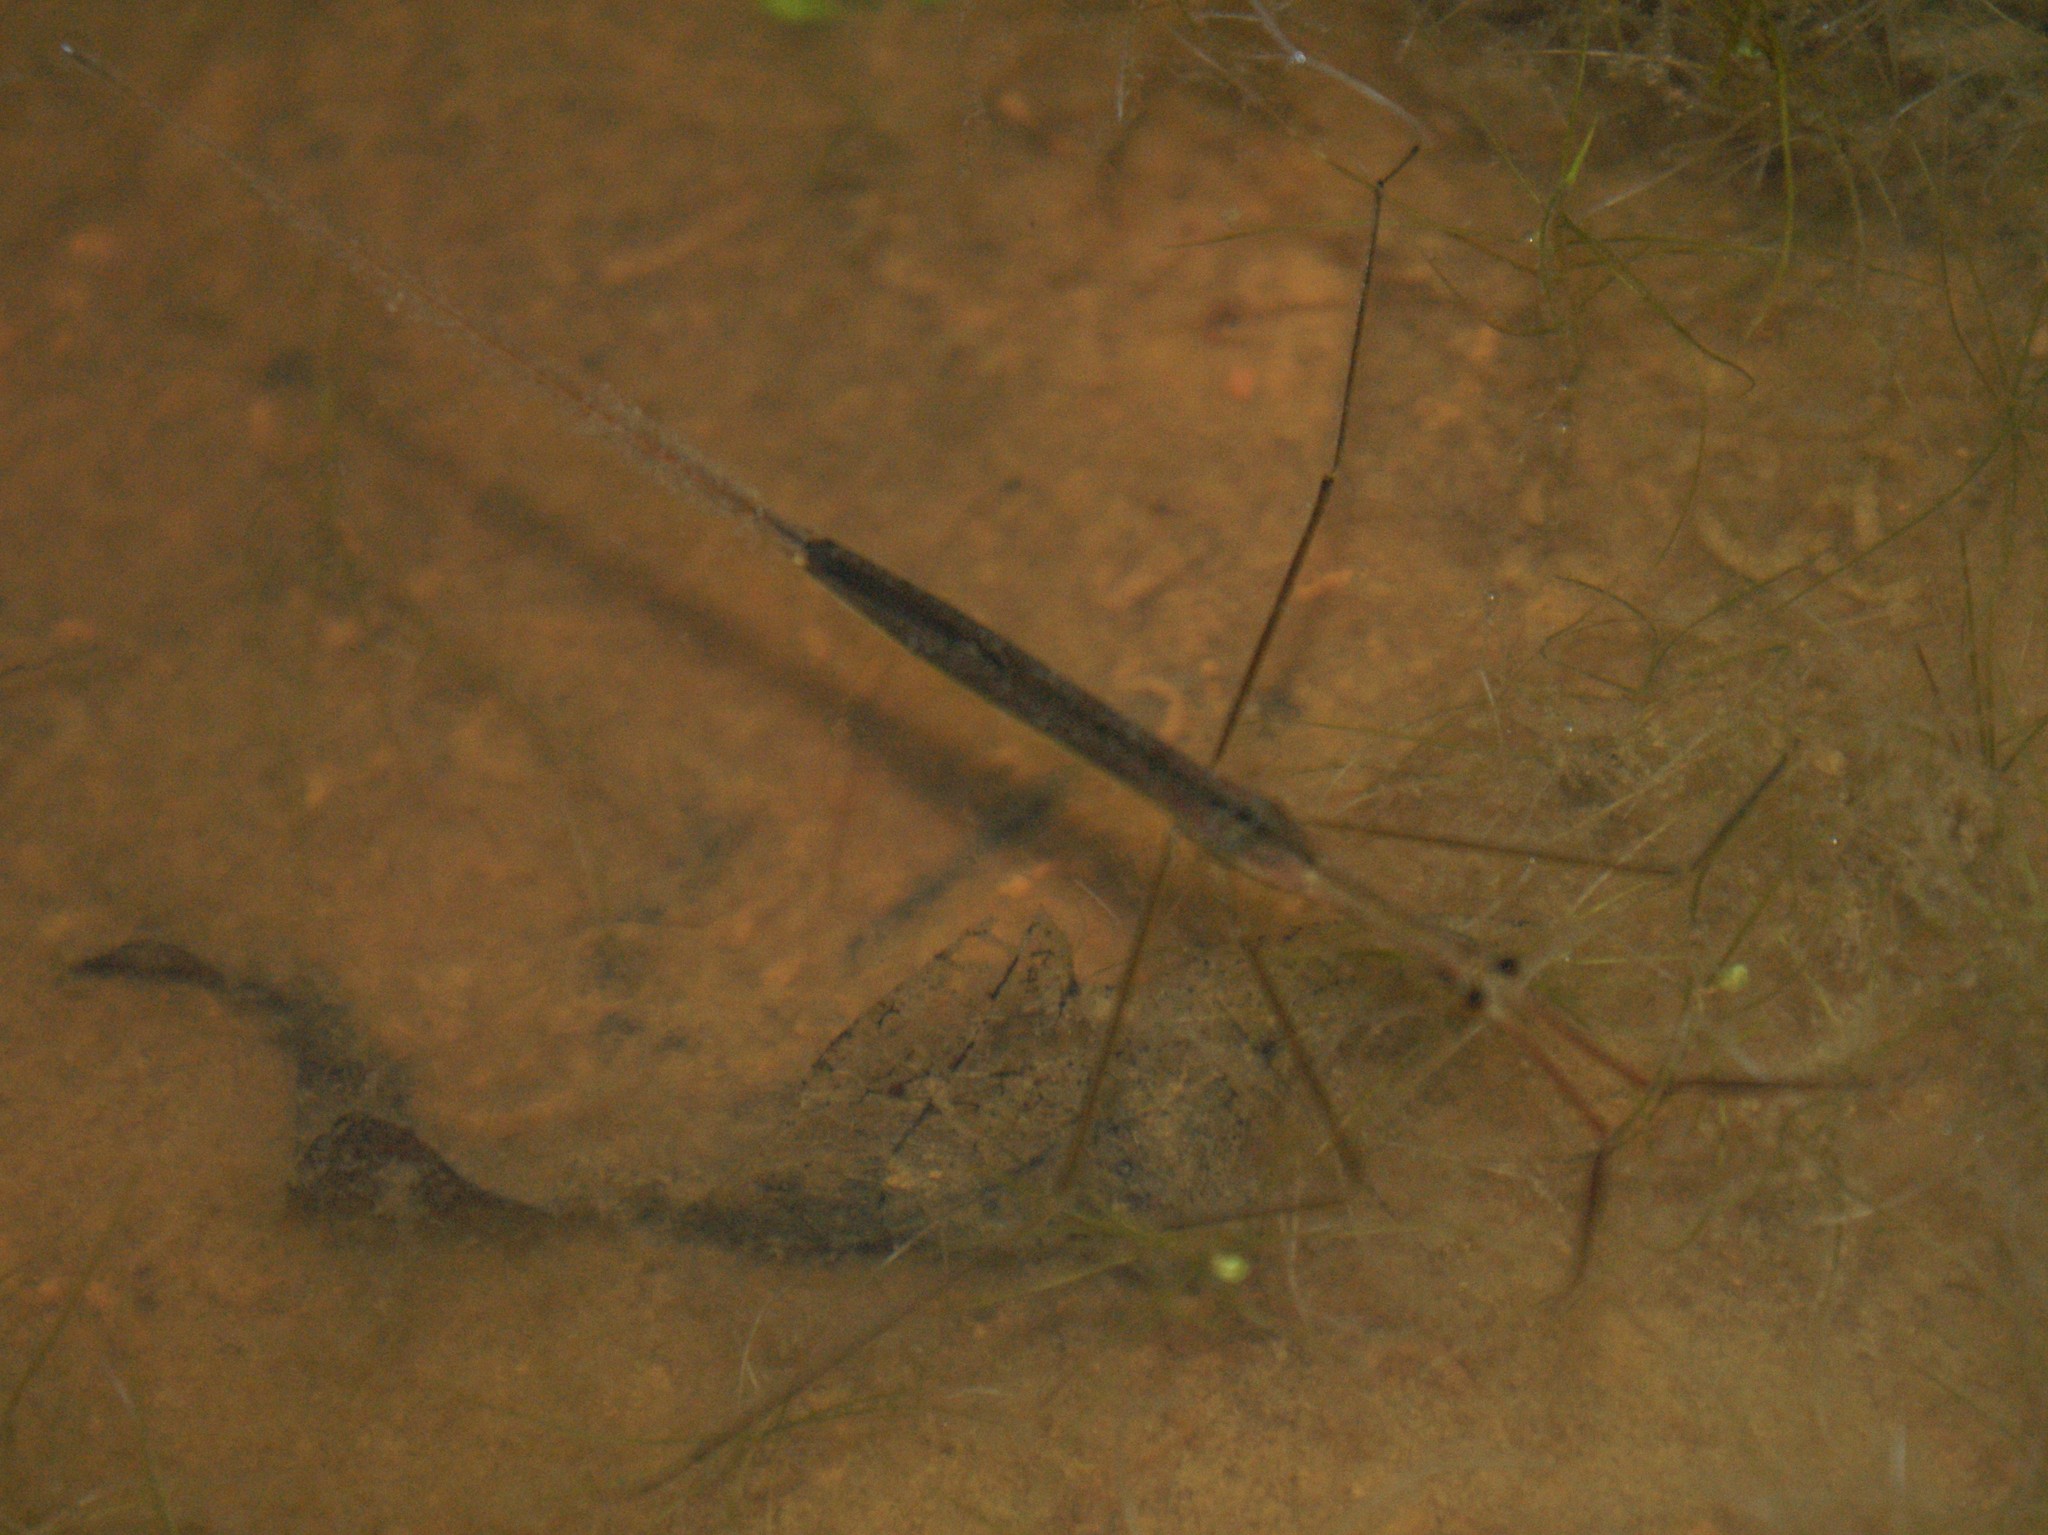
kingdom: Animalia
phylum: Arthropoda
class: Insecta
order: Hemiptera
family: Nepidae
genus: Ranatra
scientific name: Ranatra
